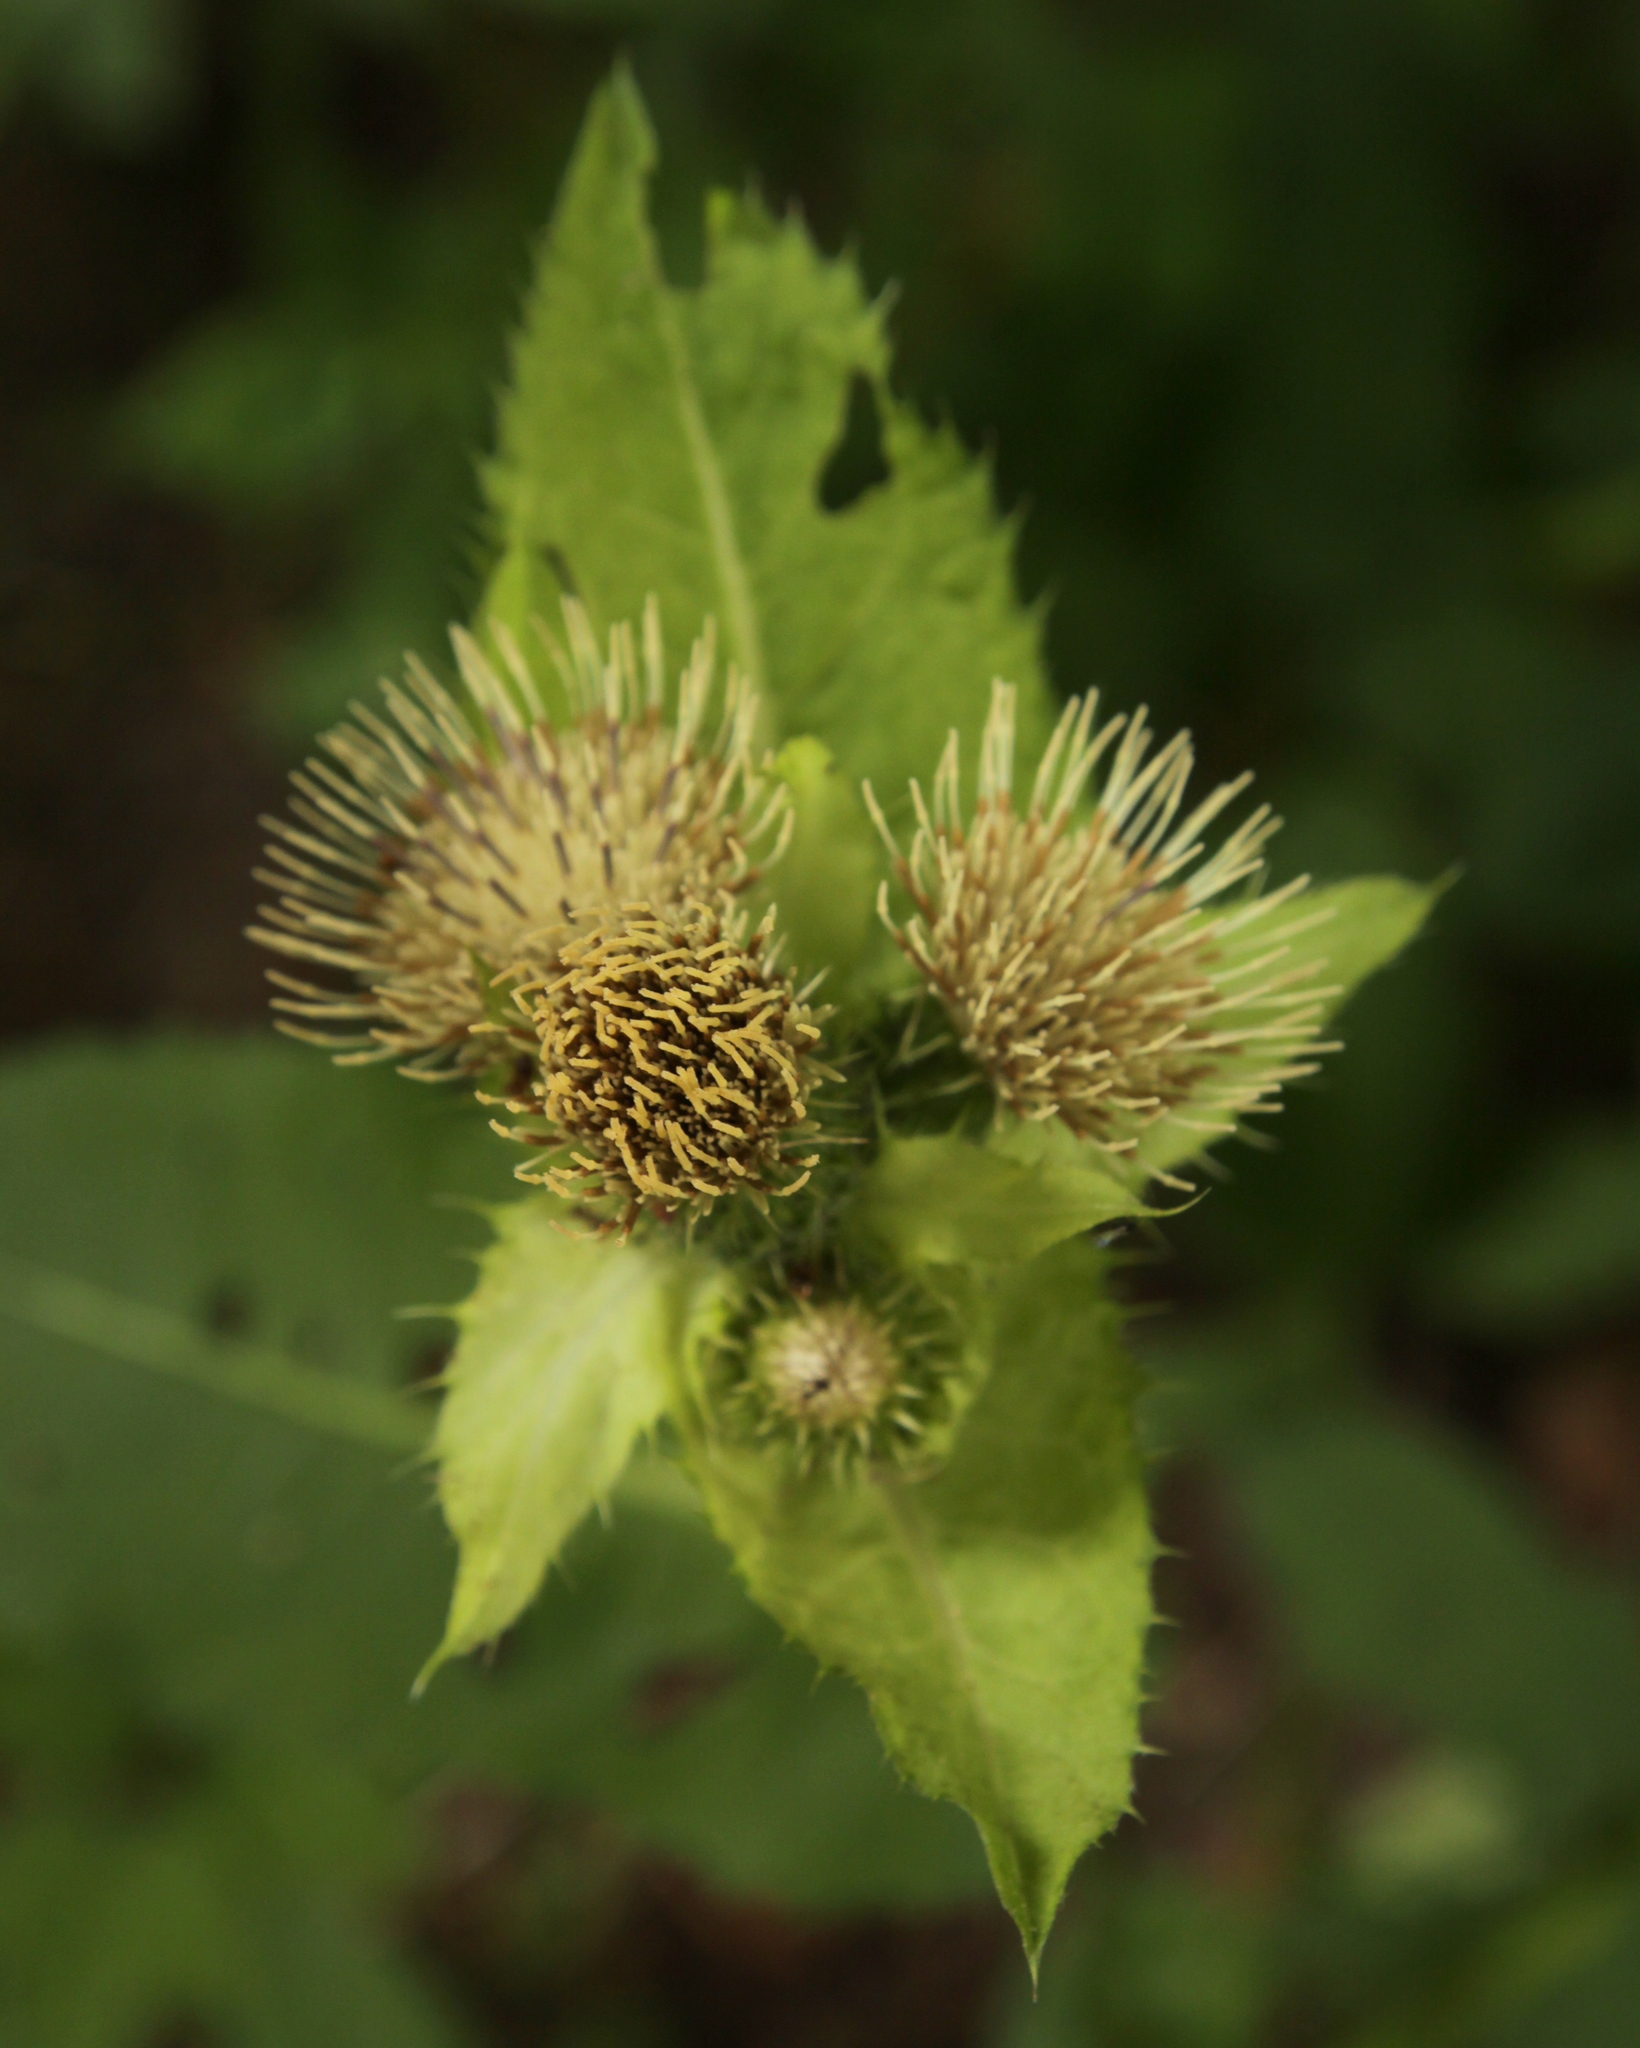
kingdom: Plantae
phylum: Tracheophyta
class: Magnoliopsida
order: Asterales
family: Asteraceae
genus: Cirsium
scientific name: Cirsium oleraceum
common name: Cabbage thistle
